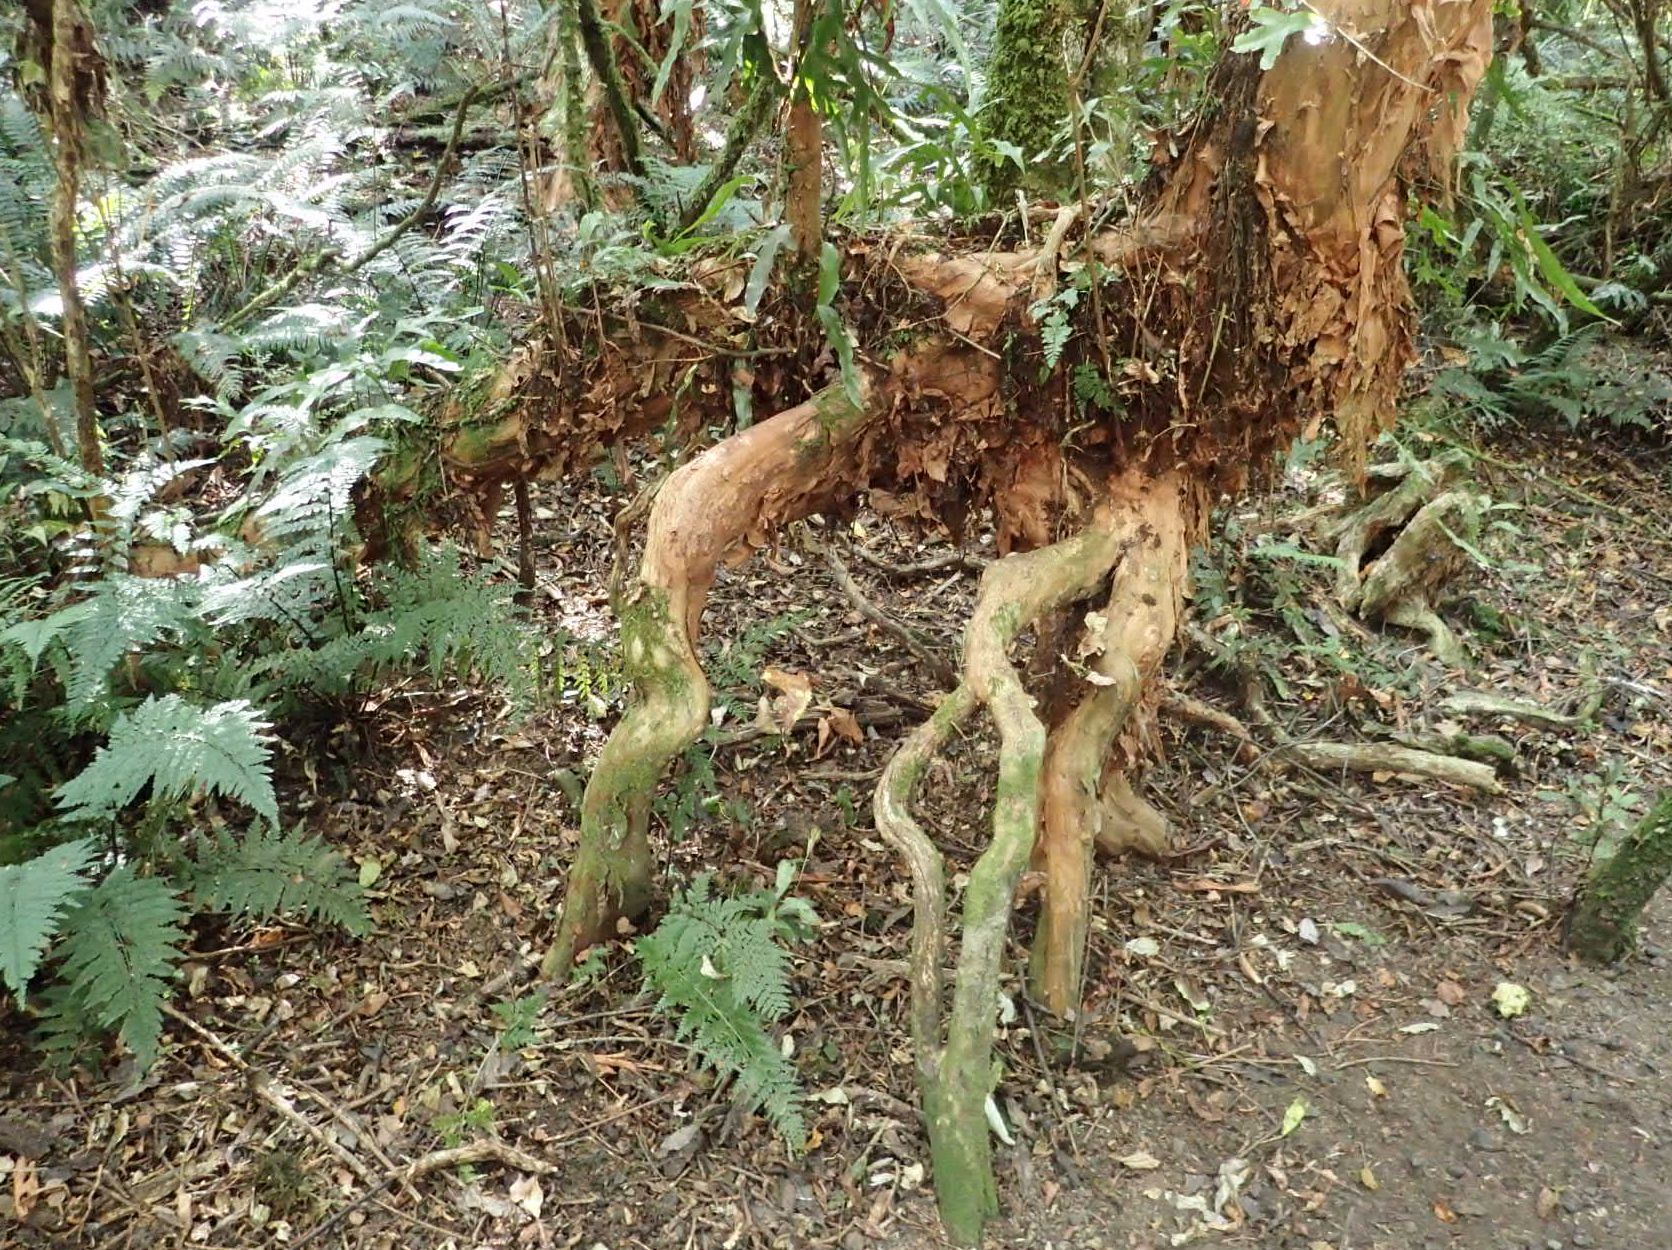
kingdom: Plantae
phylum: Tracheophyta
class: Magnoliopsida
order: Myrtales
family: Onagraceae
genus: Fuchsia
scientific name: Fuchsia excorticata
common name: Tree fuchsia
